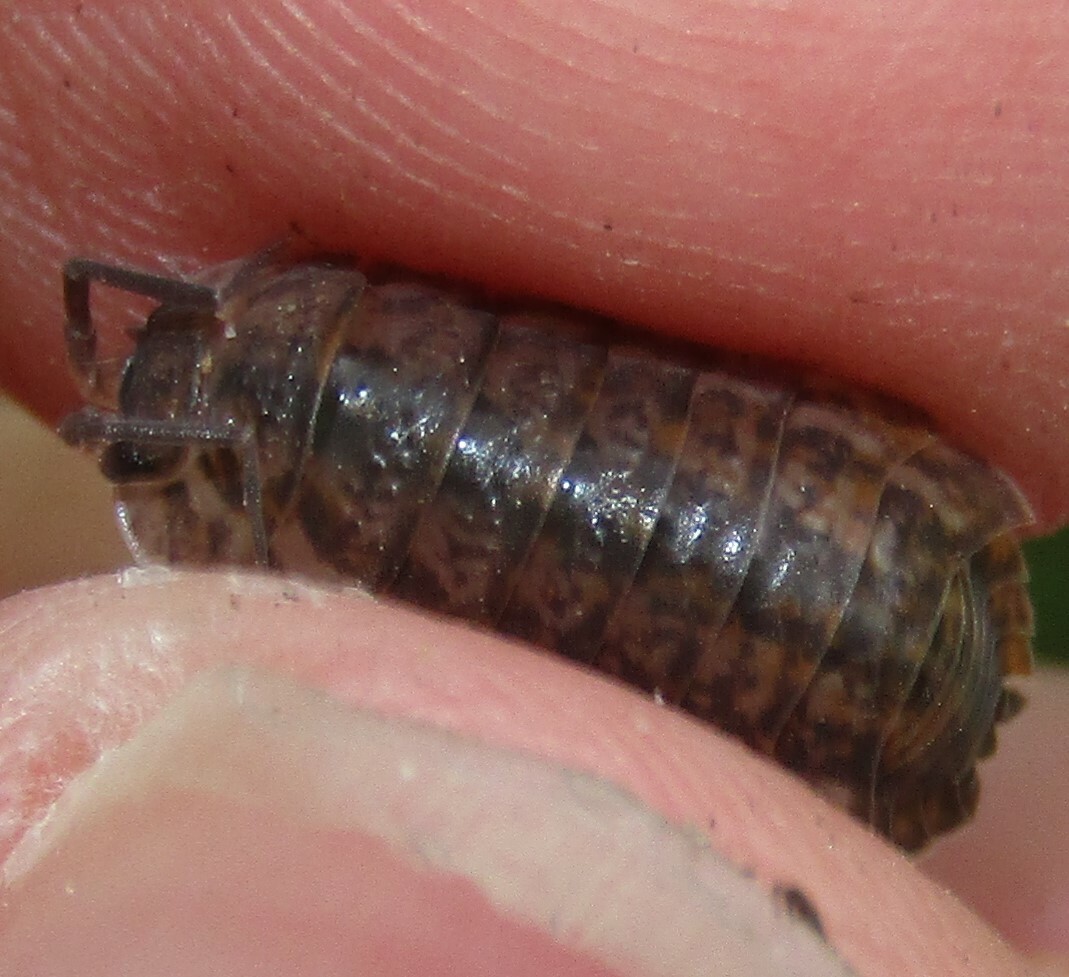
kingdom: Animalia
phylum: Arthropoda
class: Malacostraca
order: Isopoda
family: Trachelipodidae
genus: Trachelipus
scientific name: Trachelipus rathkii
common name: Isopod
